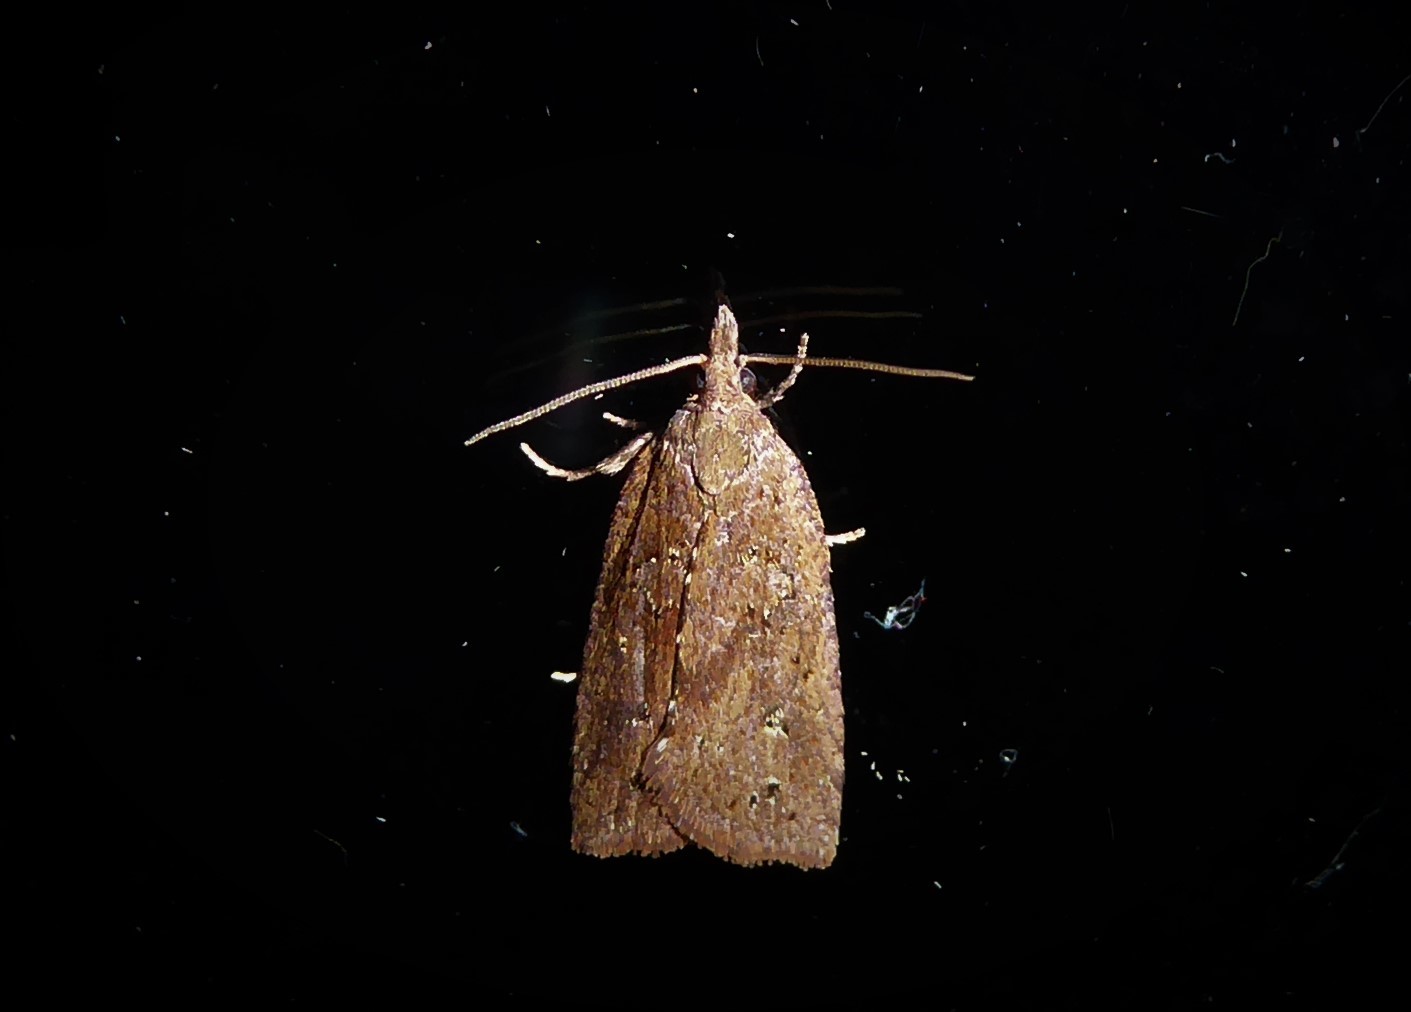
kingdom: Animalia
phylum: Arthropoda
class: Insecta
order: Lepidoptera
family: Tortricidae
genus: Planotortrix
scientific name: Planotortrix notophaea
